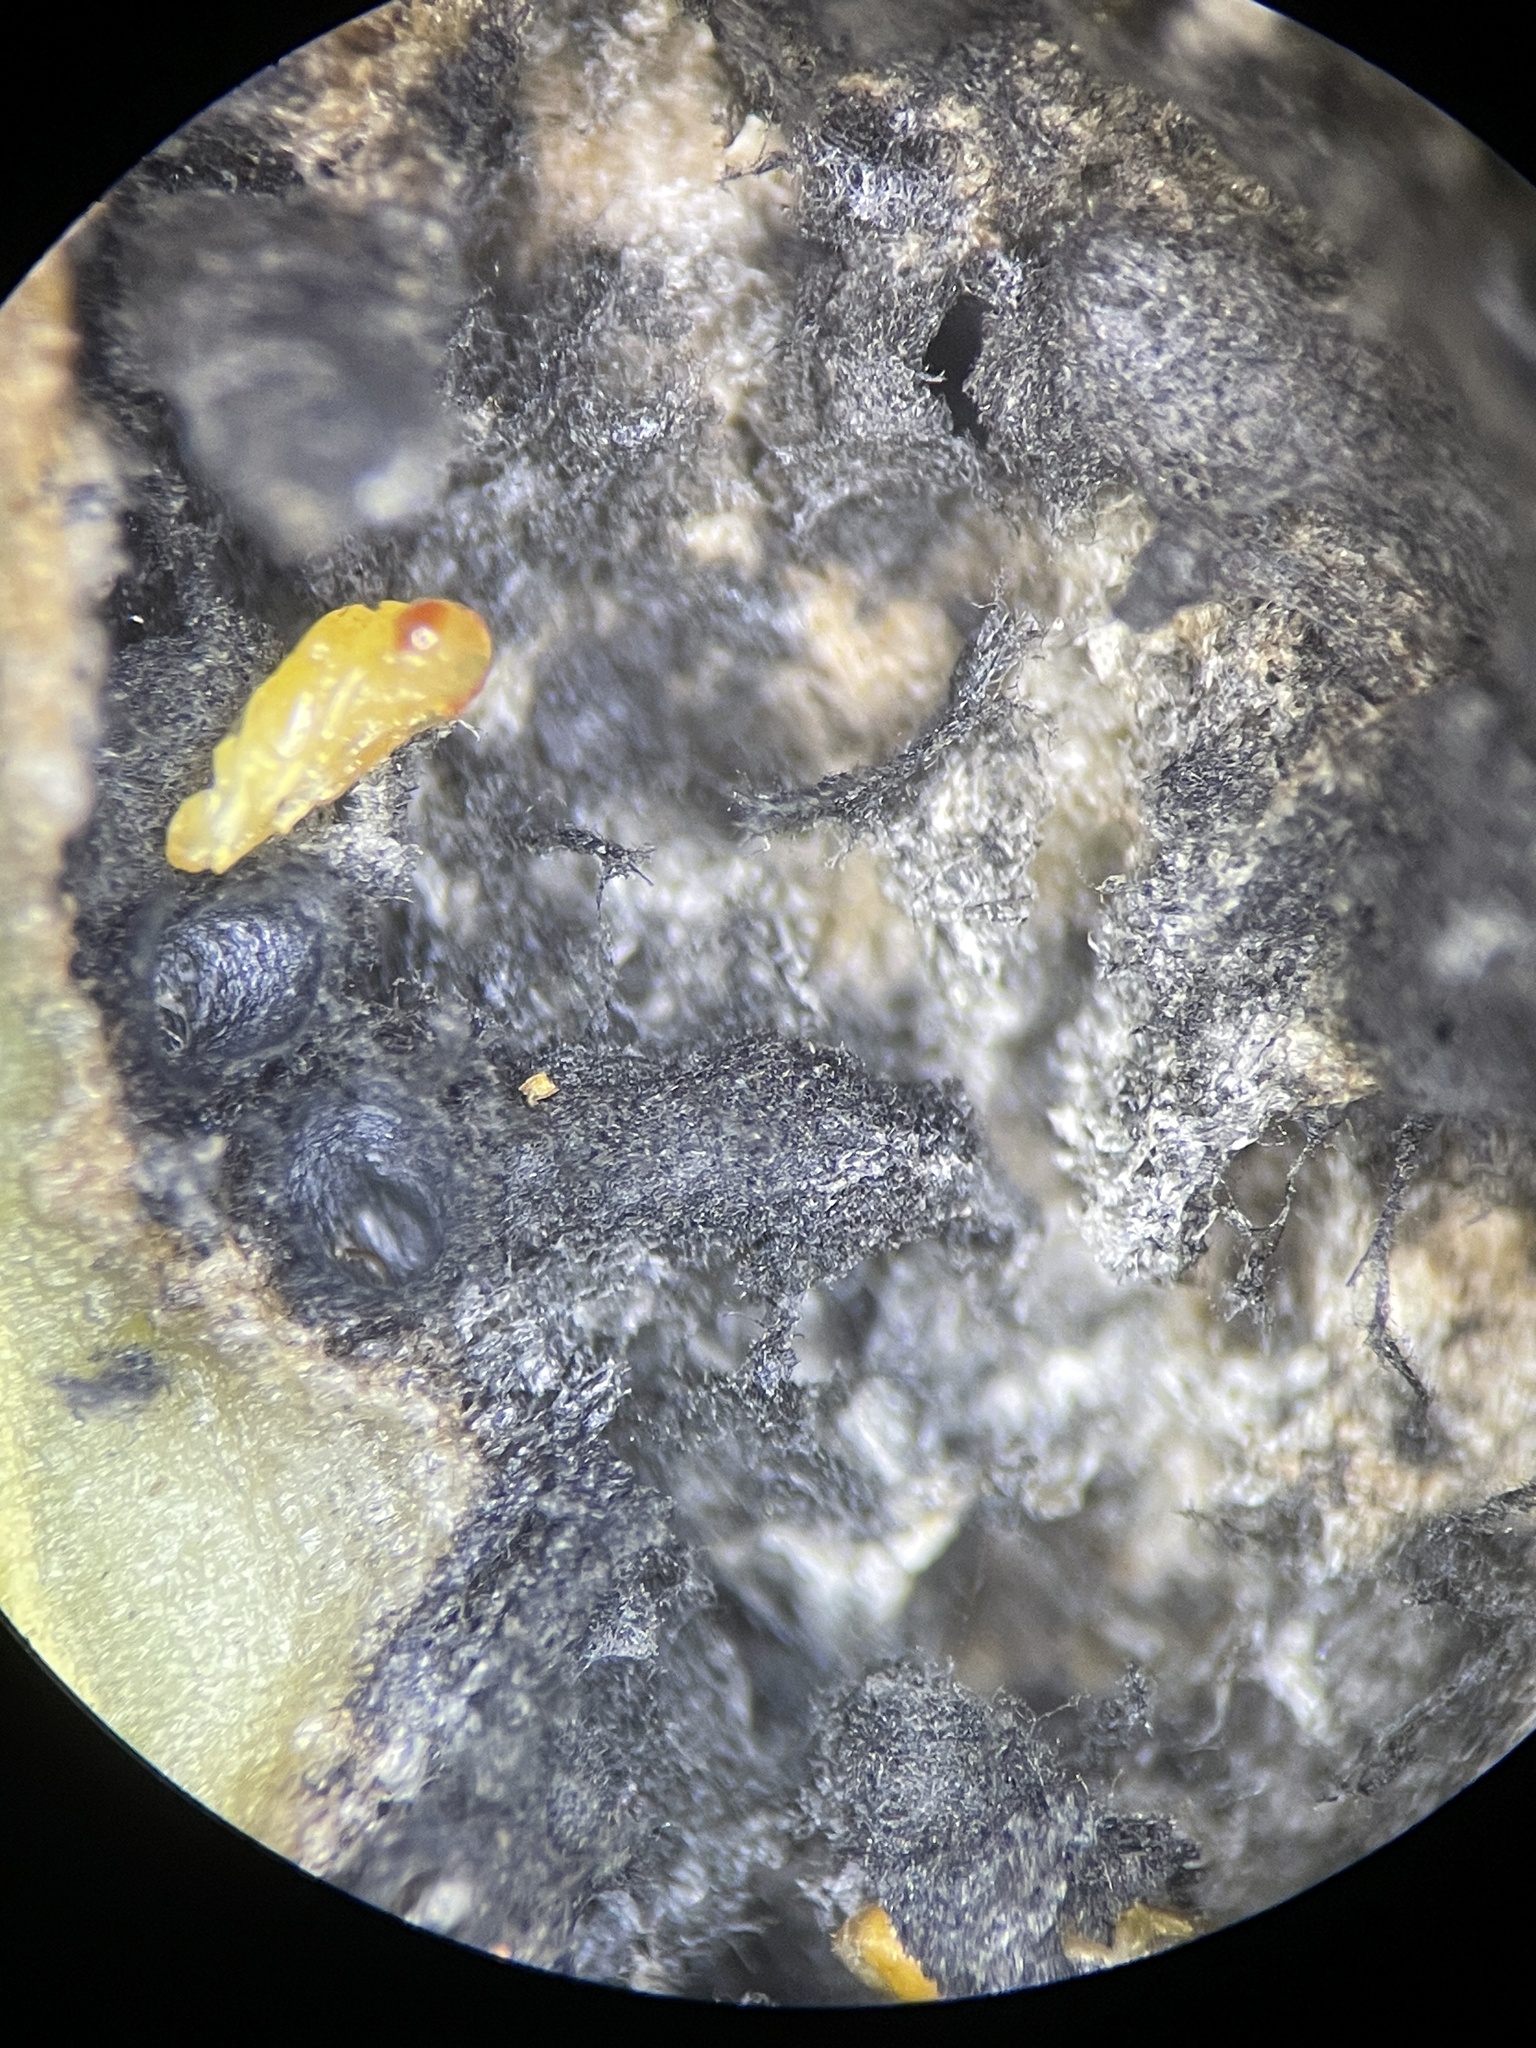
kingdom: Animalia
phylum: Arthropoda
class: Insecta
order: Diptera
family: Cecidomyiidae
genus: Neolasioptera
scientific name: Neolasioptera lathami
